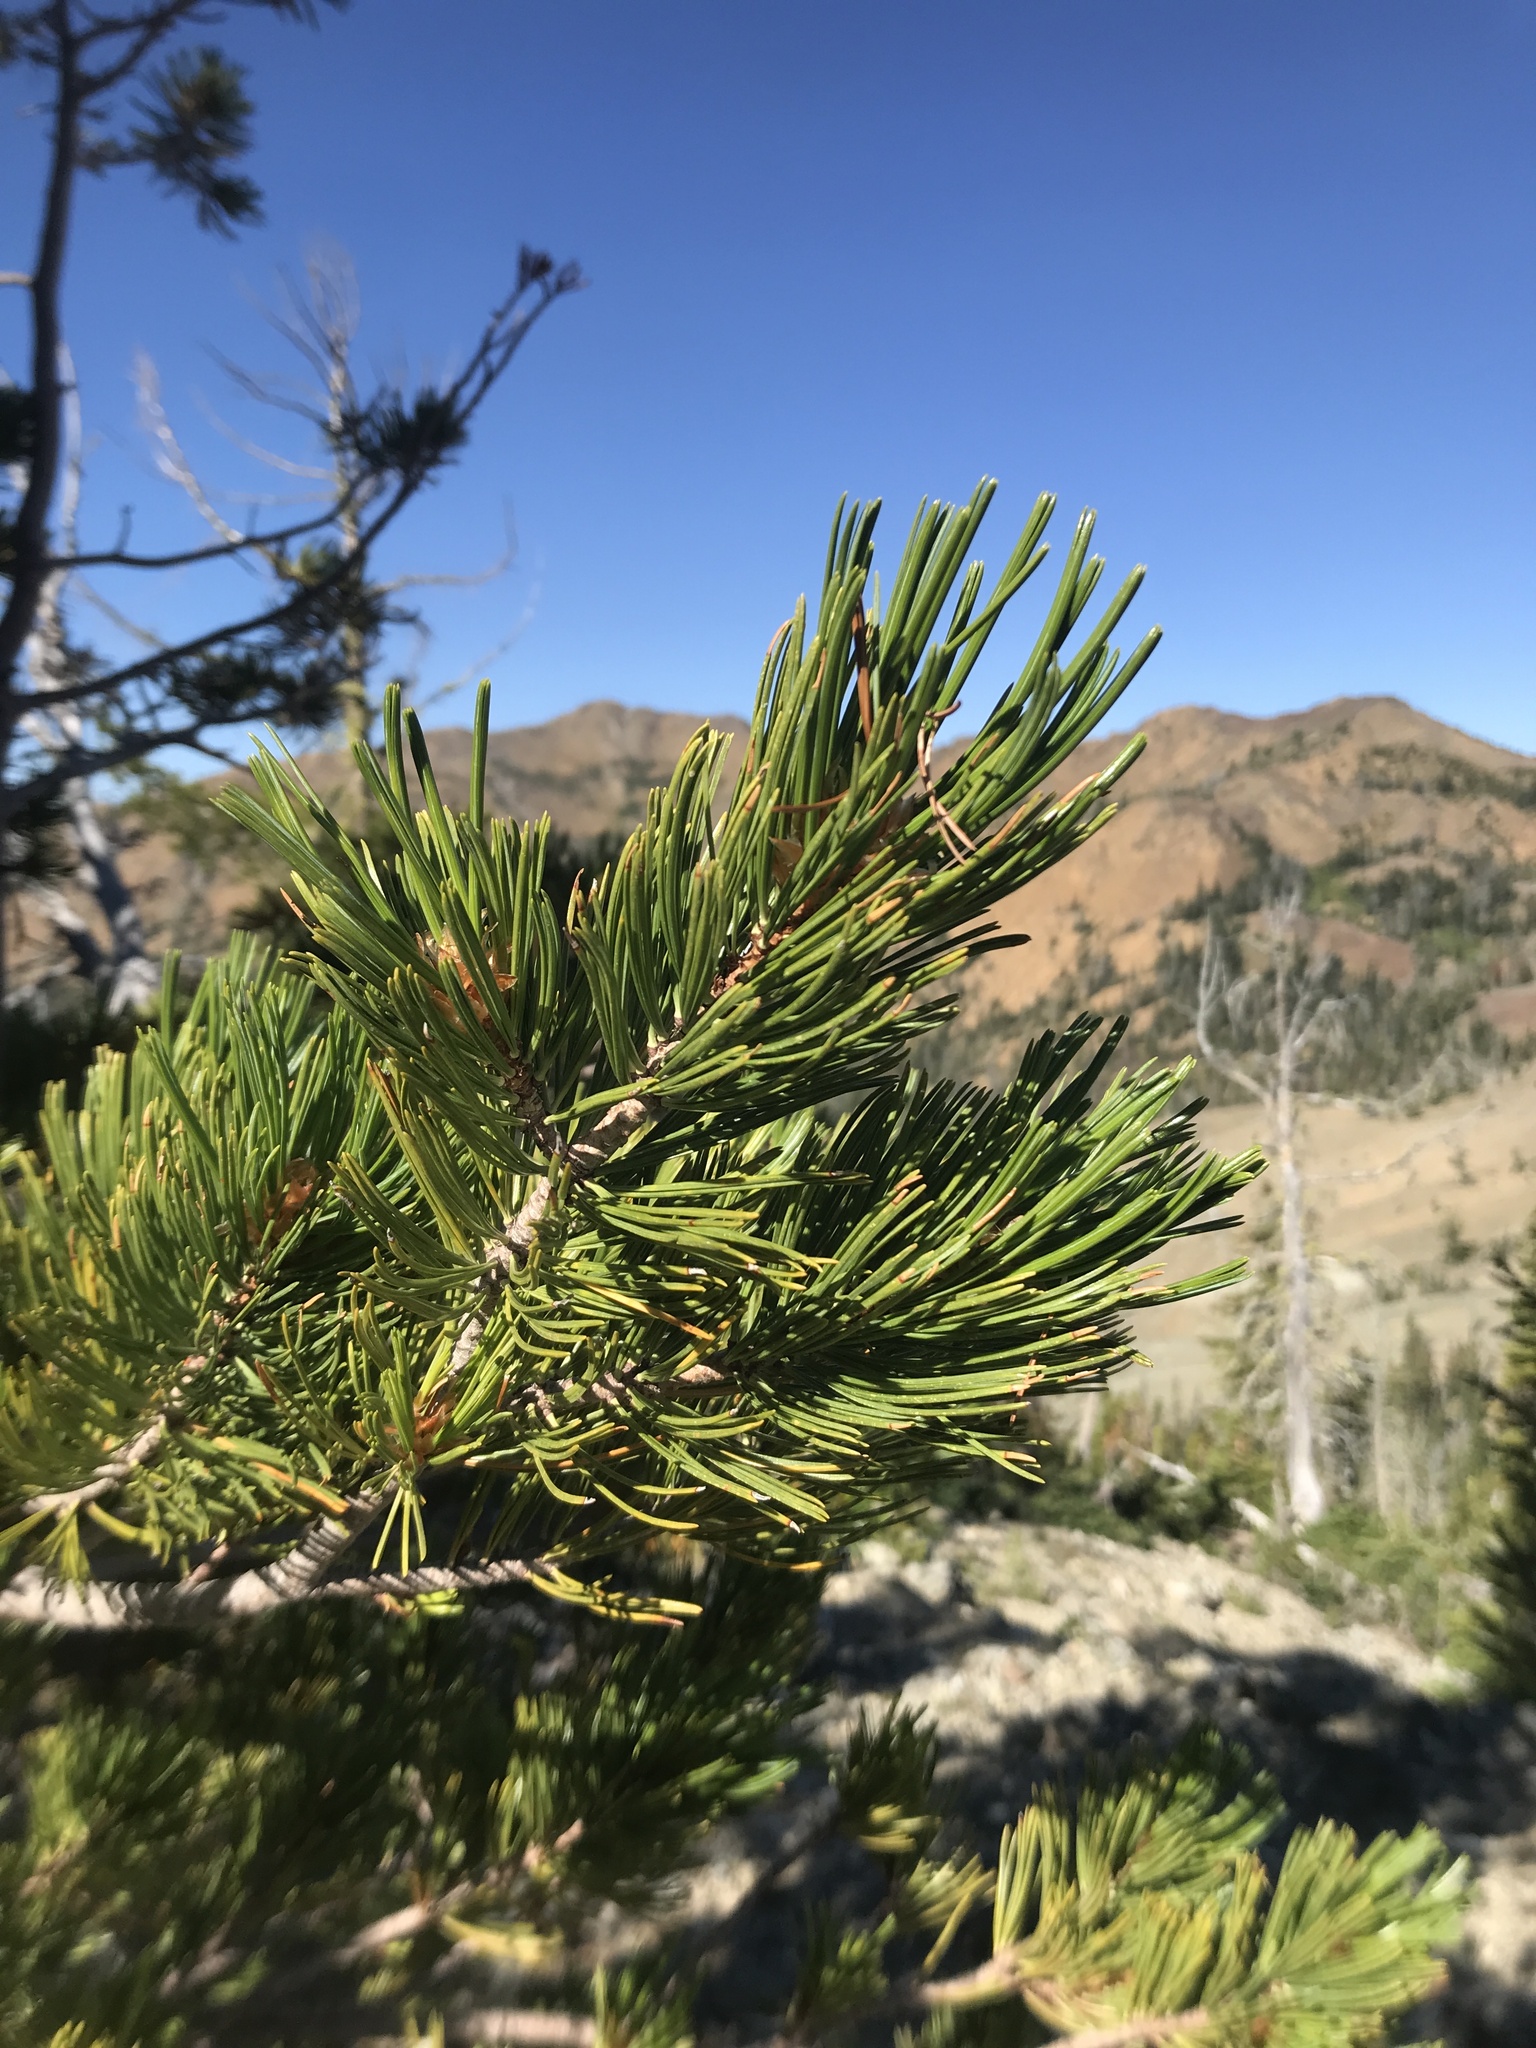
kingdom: Plantae
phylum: Tracheophyta
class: Pinopsida
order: Pinales
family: Pinaceae
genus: Pinus
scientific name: Pinus albicaulis
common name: Whitebark pine
